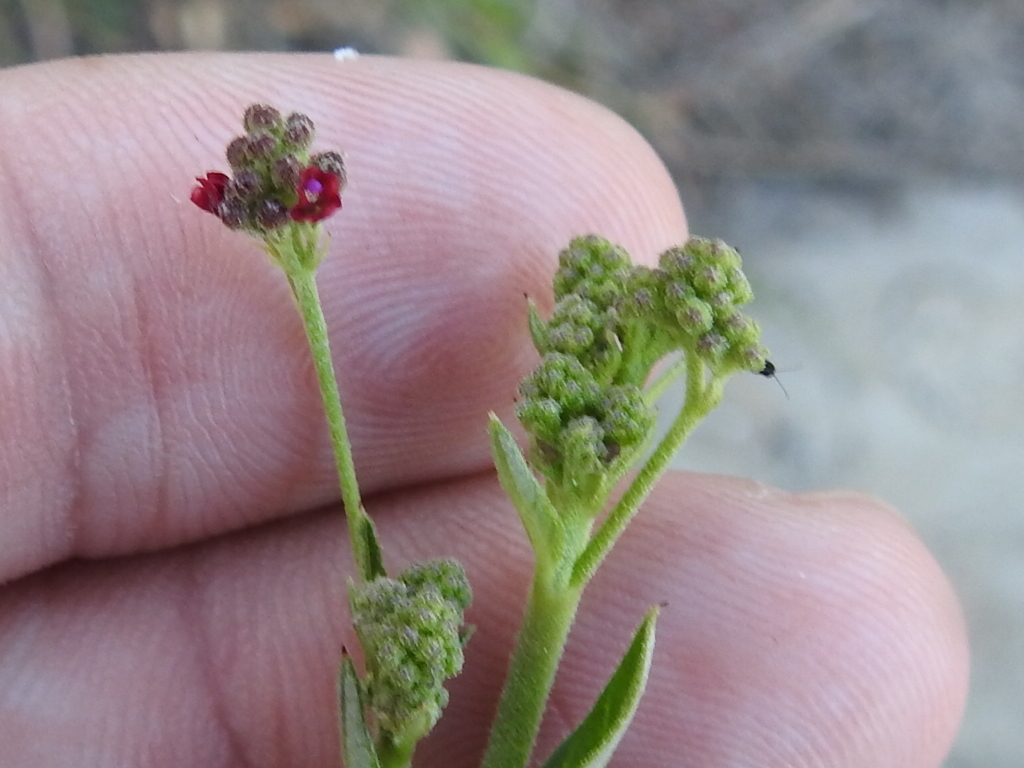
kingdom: Plantae
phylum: Tracheophyta
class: Magnoliopsida
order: Caryophyllales
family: Nyctaginaceae
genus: Boerhavia
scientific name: Boerhavia coccinea
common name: Scarlet spiderling
